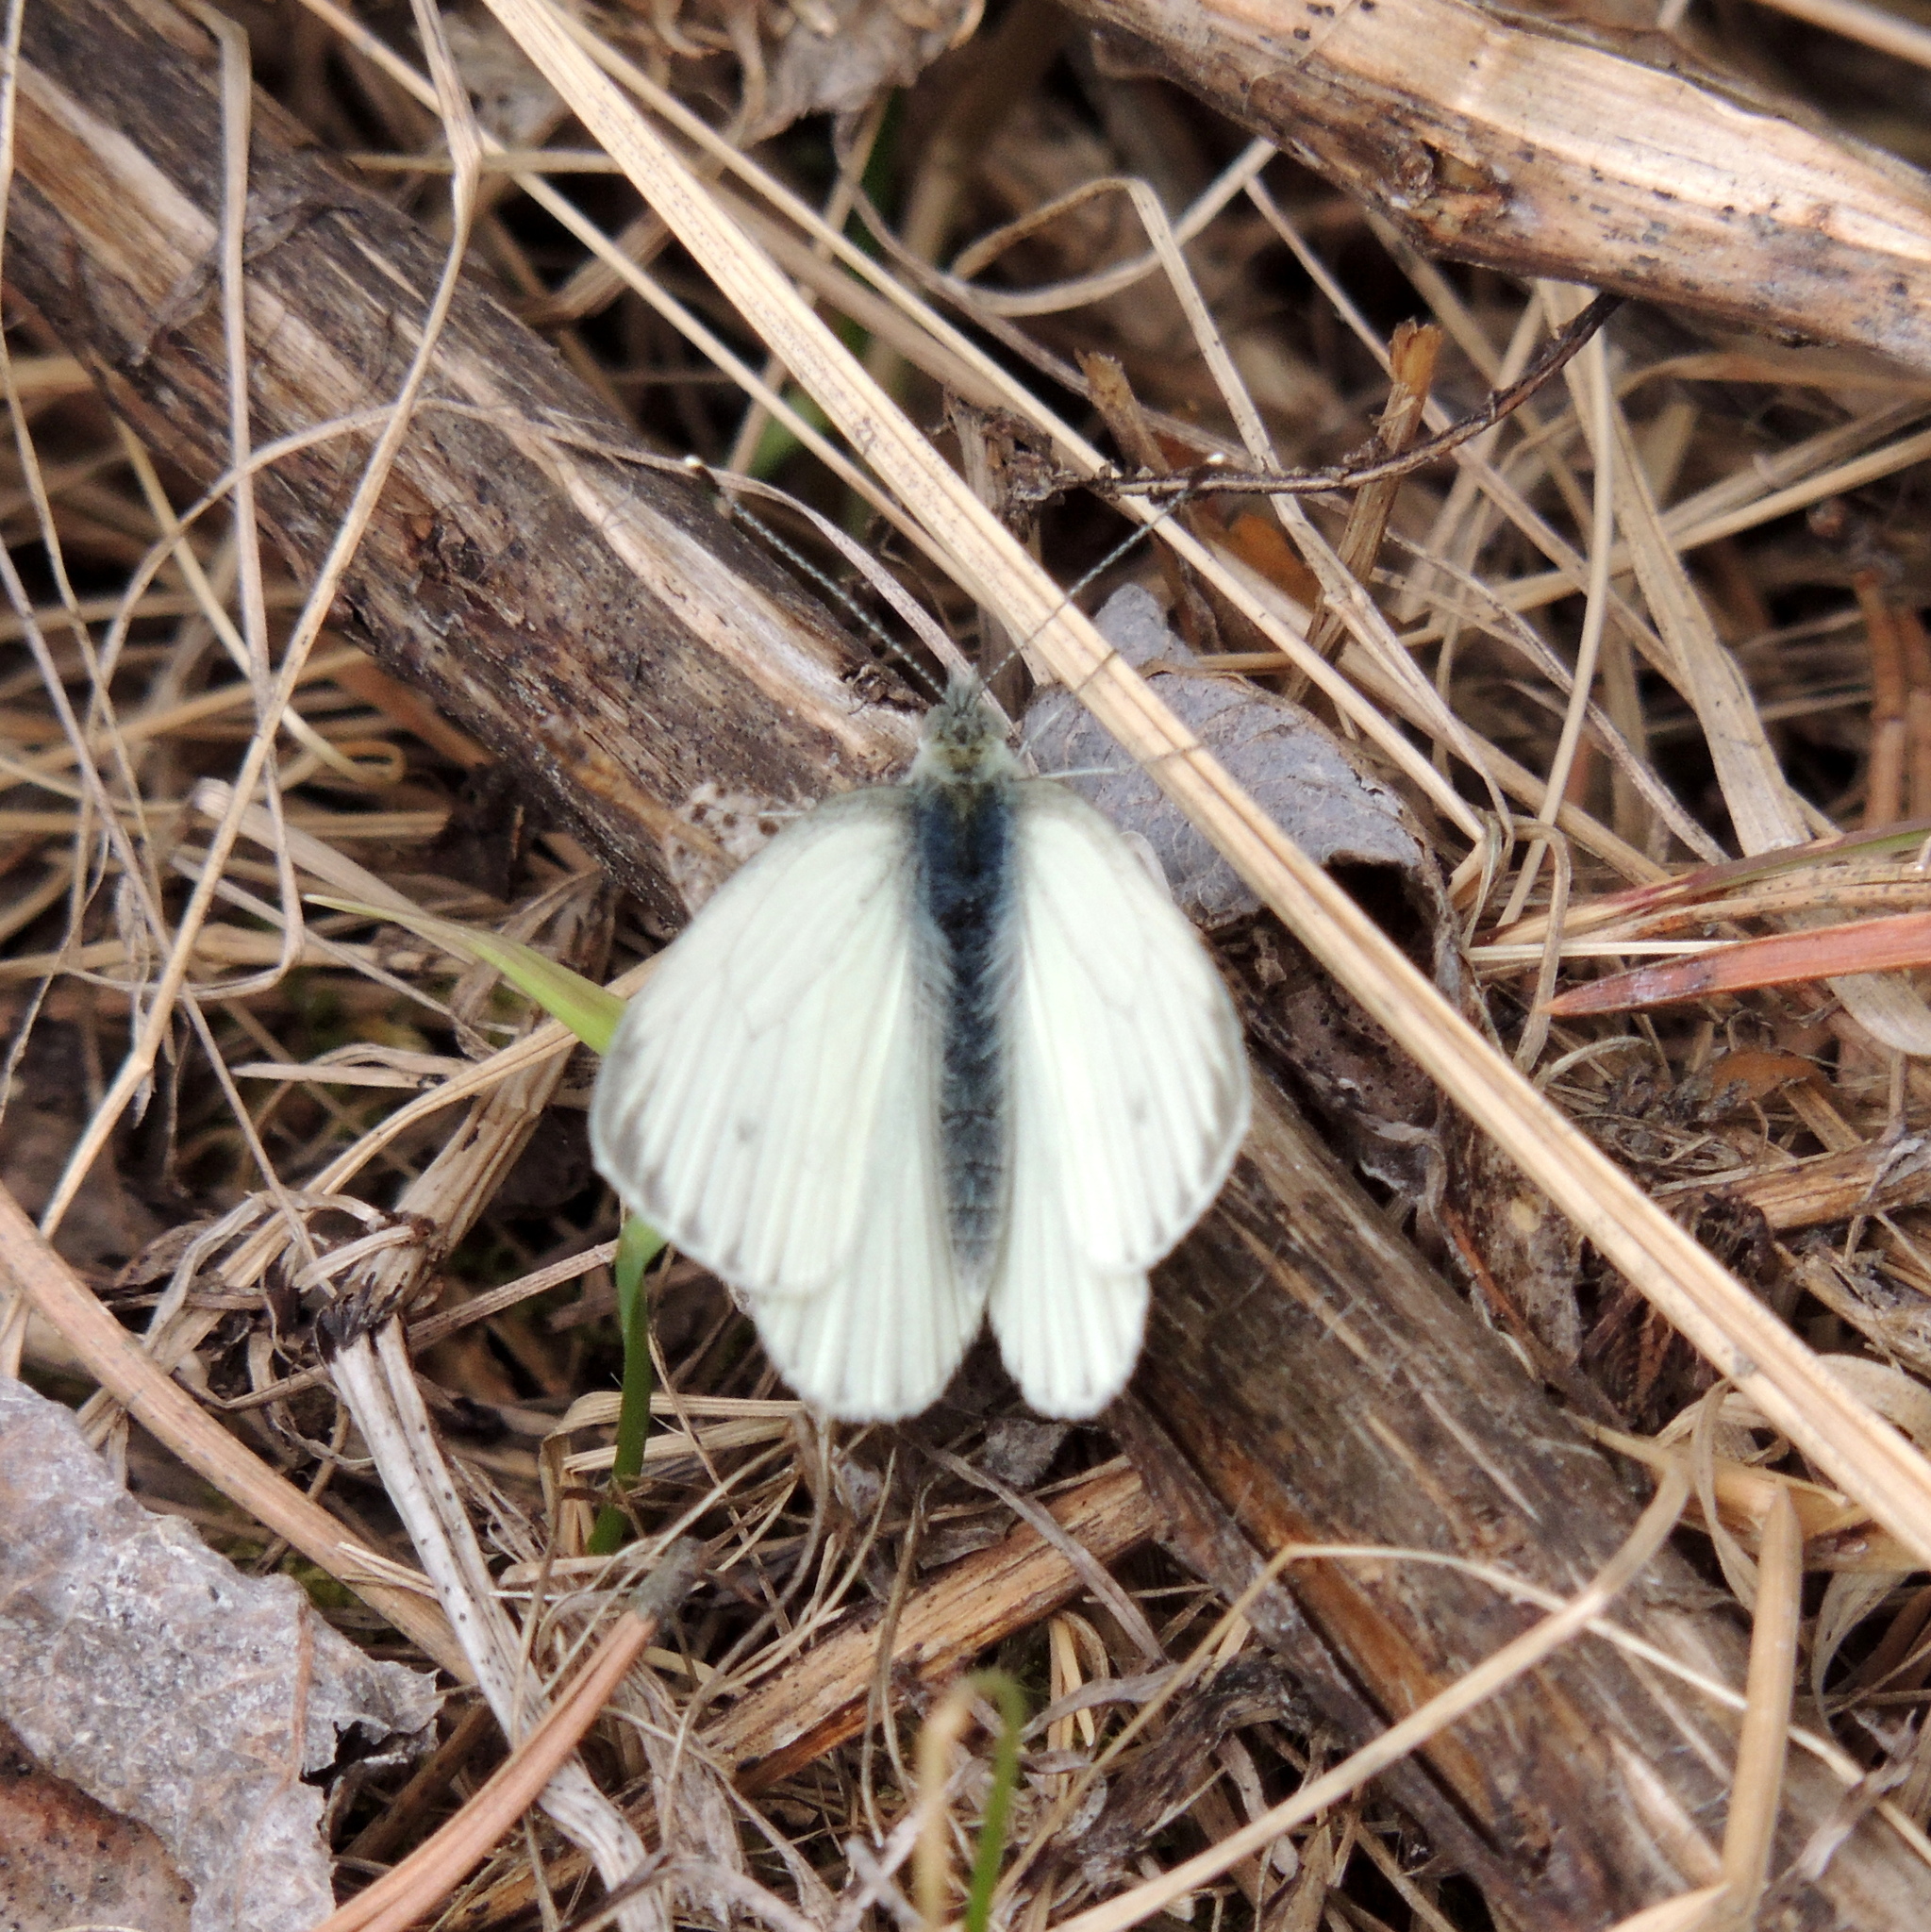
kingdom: Animalia
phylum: Arthropoda
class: Insecta
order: Lepidoptera
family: Pieridae
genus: Pieris
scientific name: Pieris napi
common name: Green-veined white
